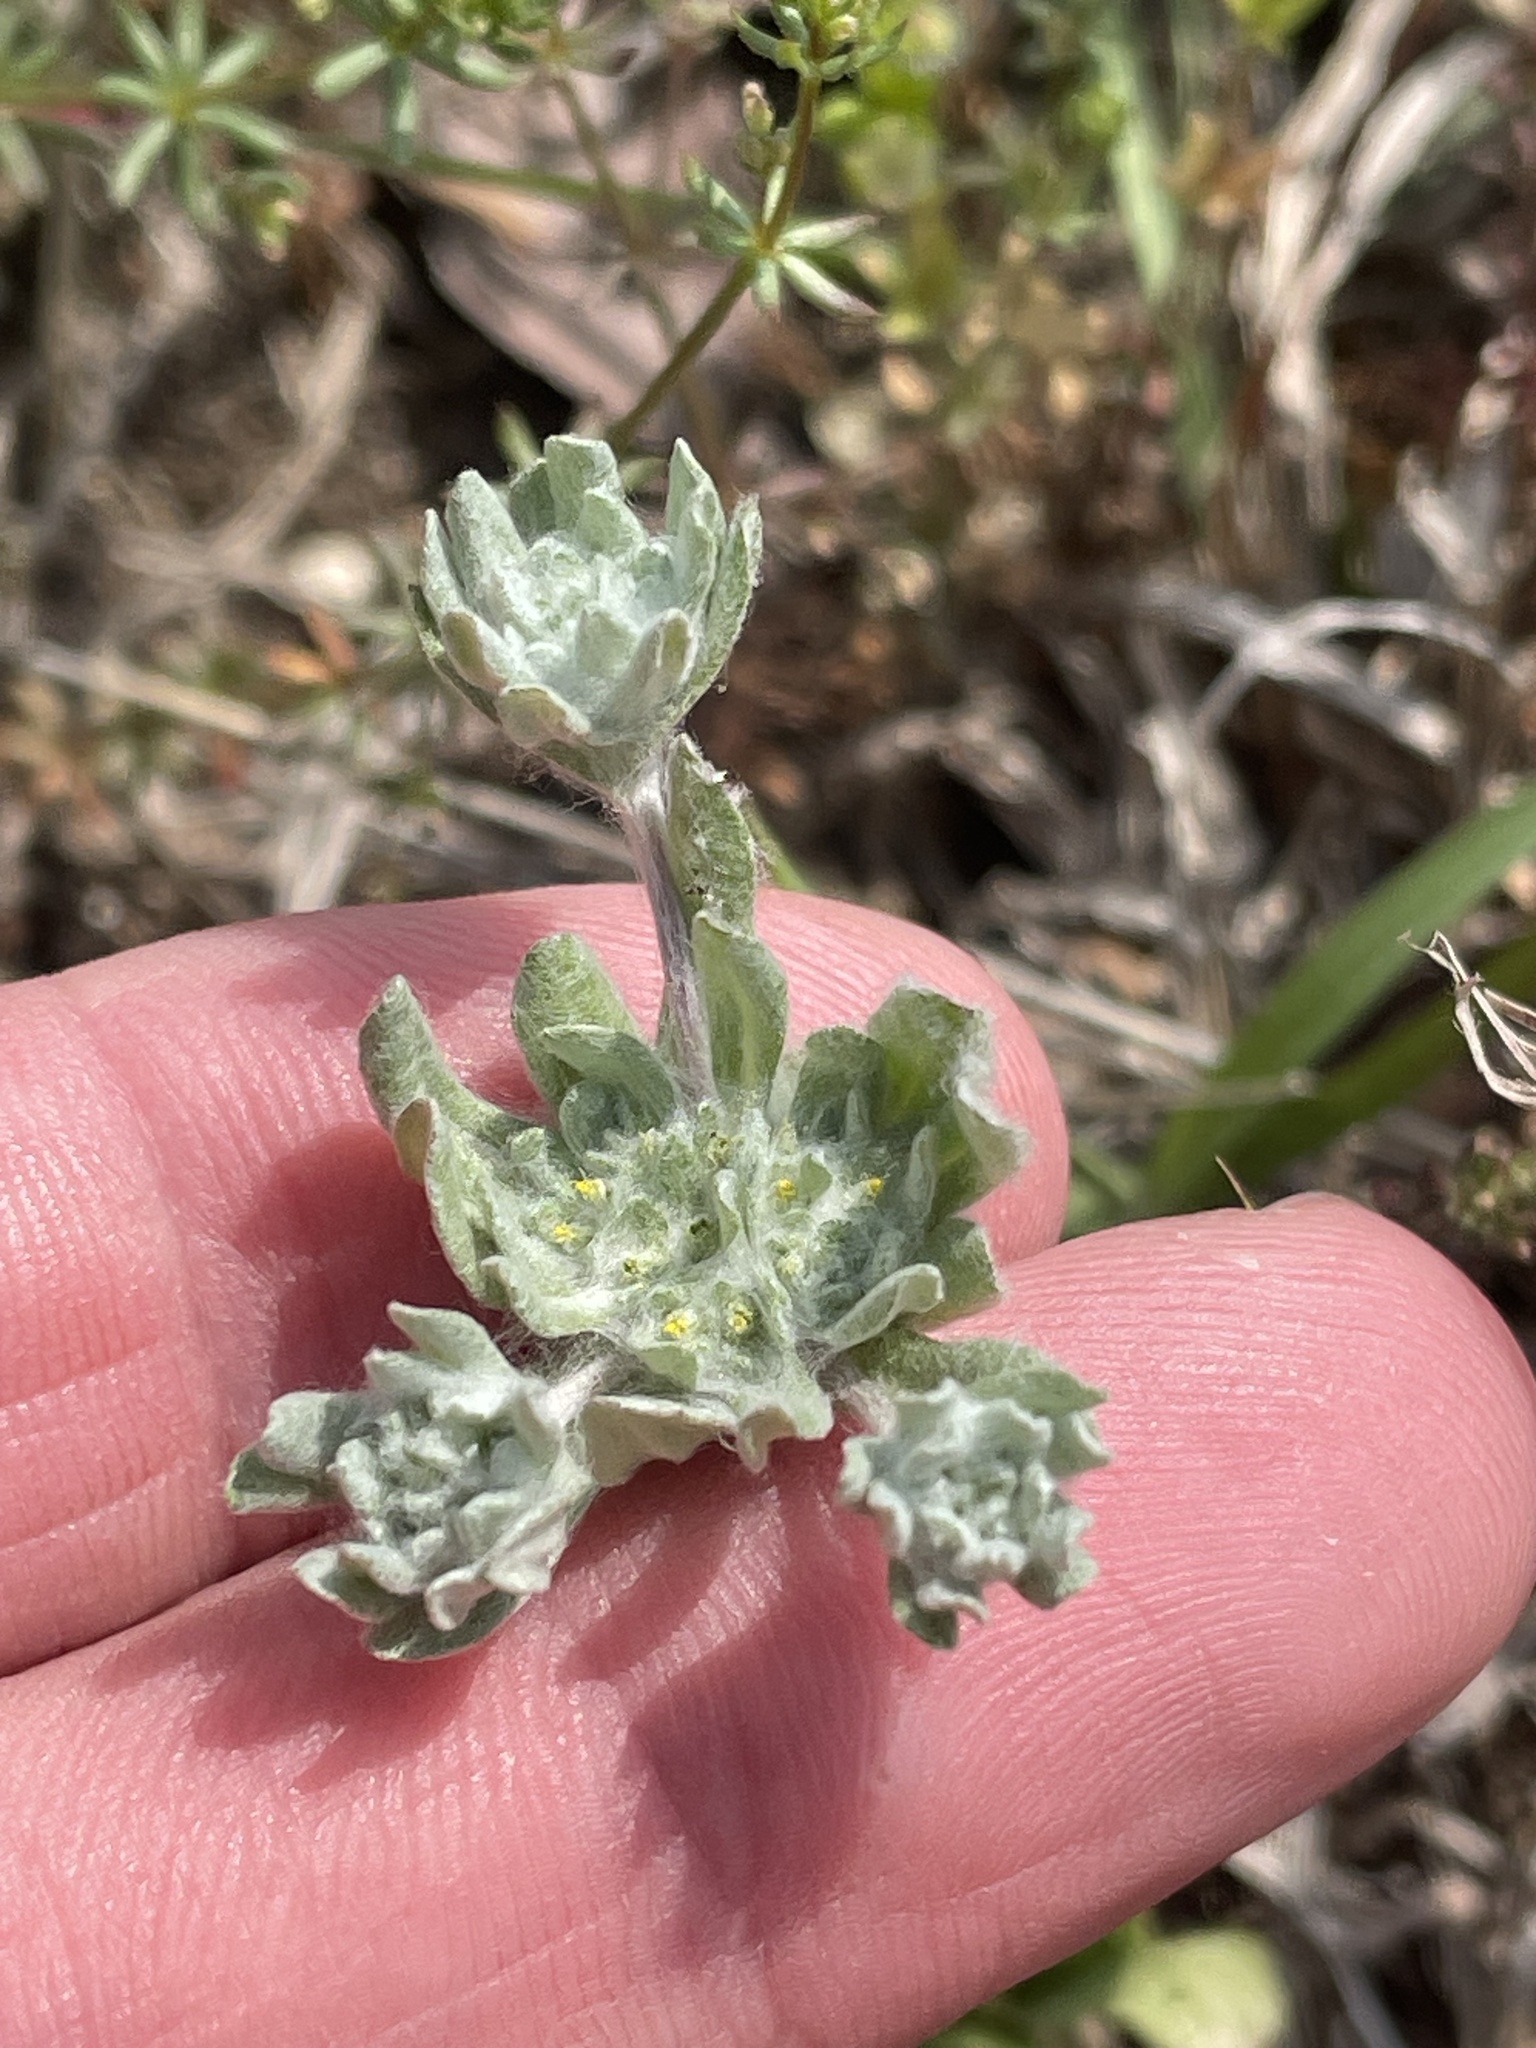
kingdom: Plantae
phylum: Tracheophyta
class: Magnoliopsida
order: Asterales
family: Asteraceae
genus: Diaperia
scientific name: Diaperia prolifera
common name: Big-head rabbit-tobacco
